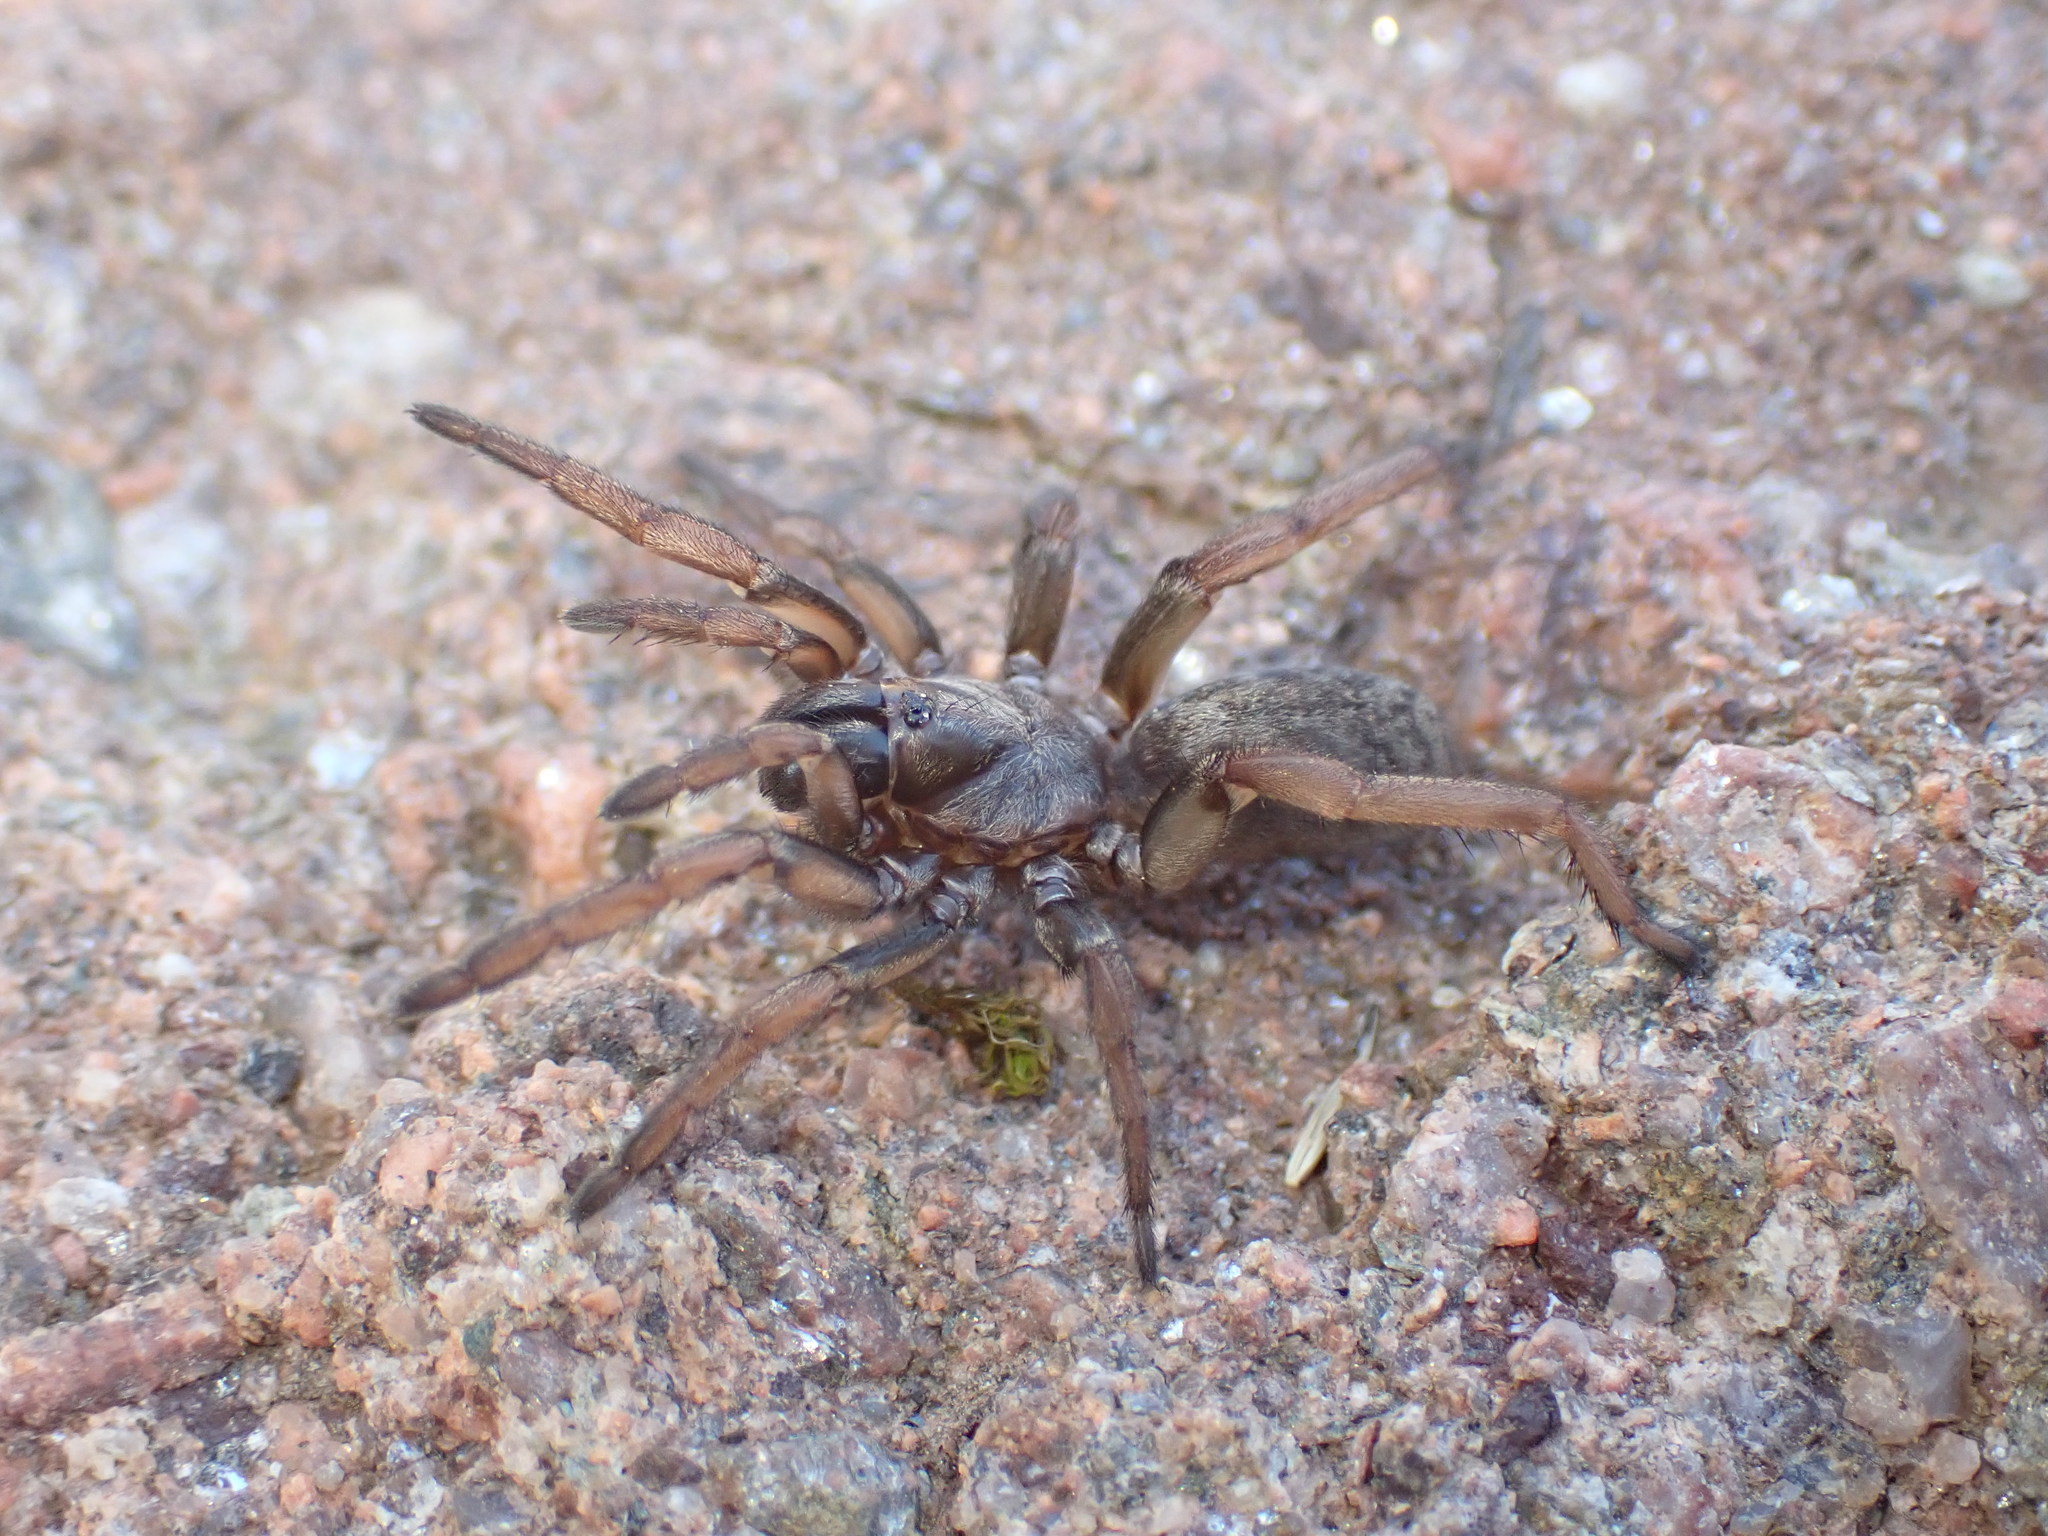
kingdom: Animalia
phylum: Arthropoda
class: Arachnida
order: Araneae
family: Nemesiidae
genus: Nemesia
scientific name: Nemesia
